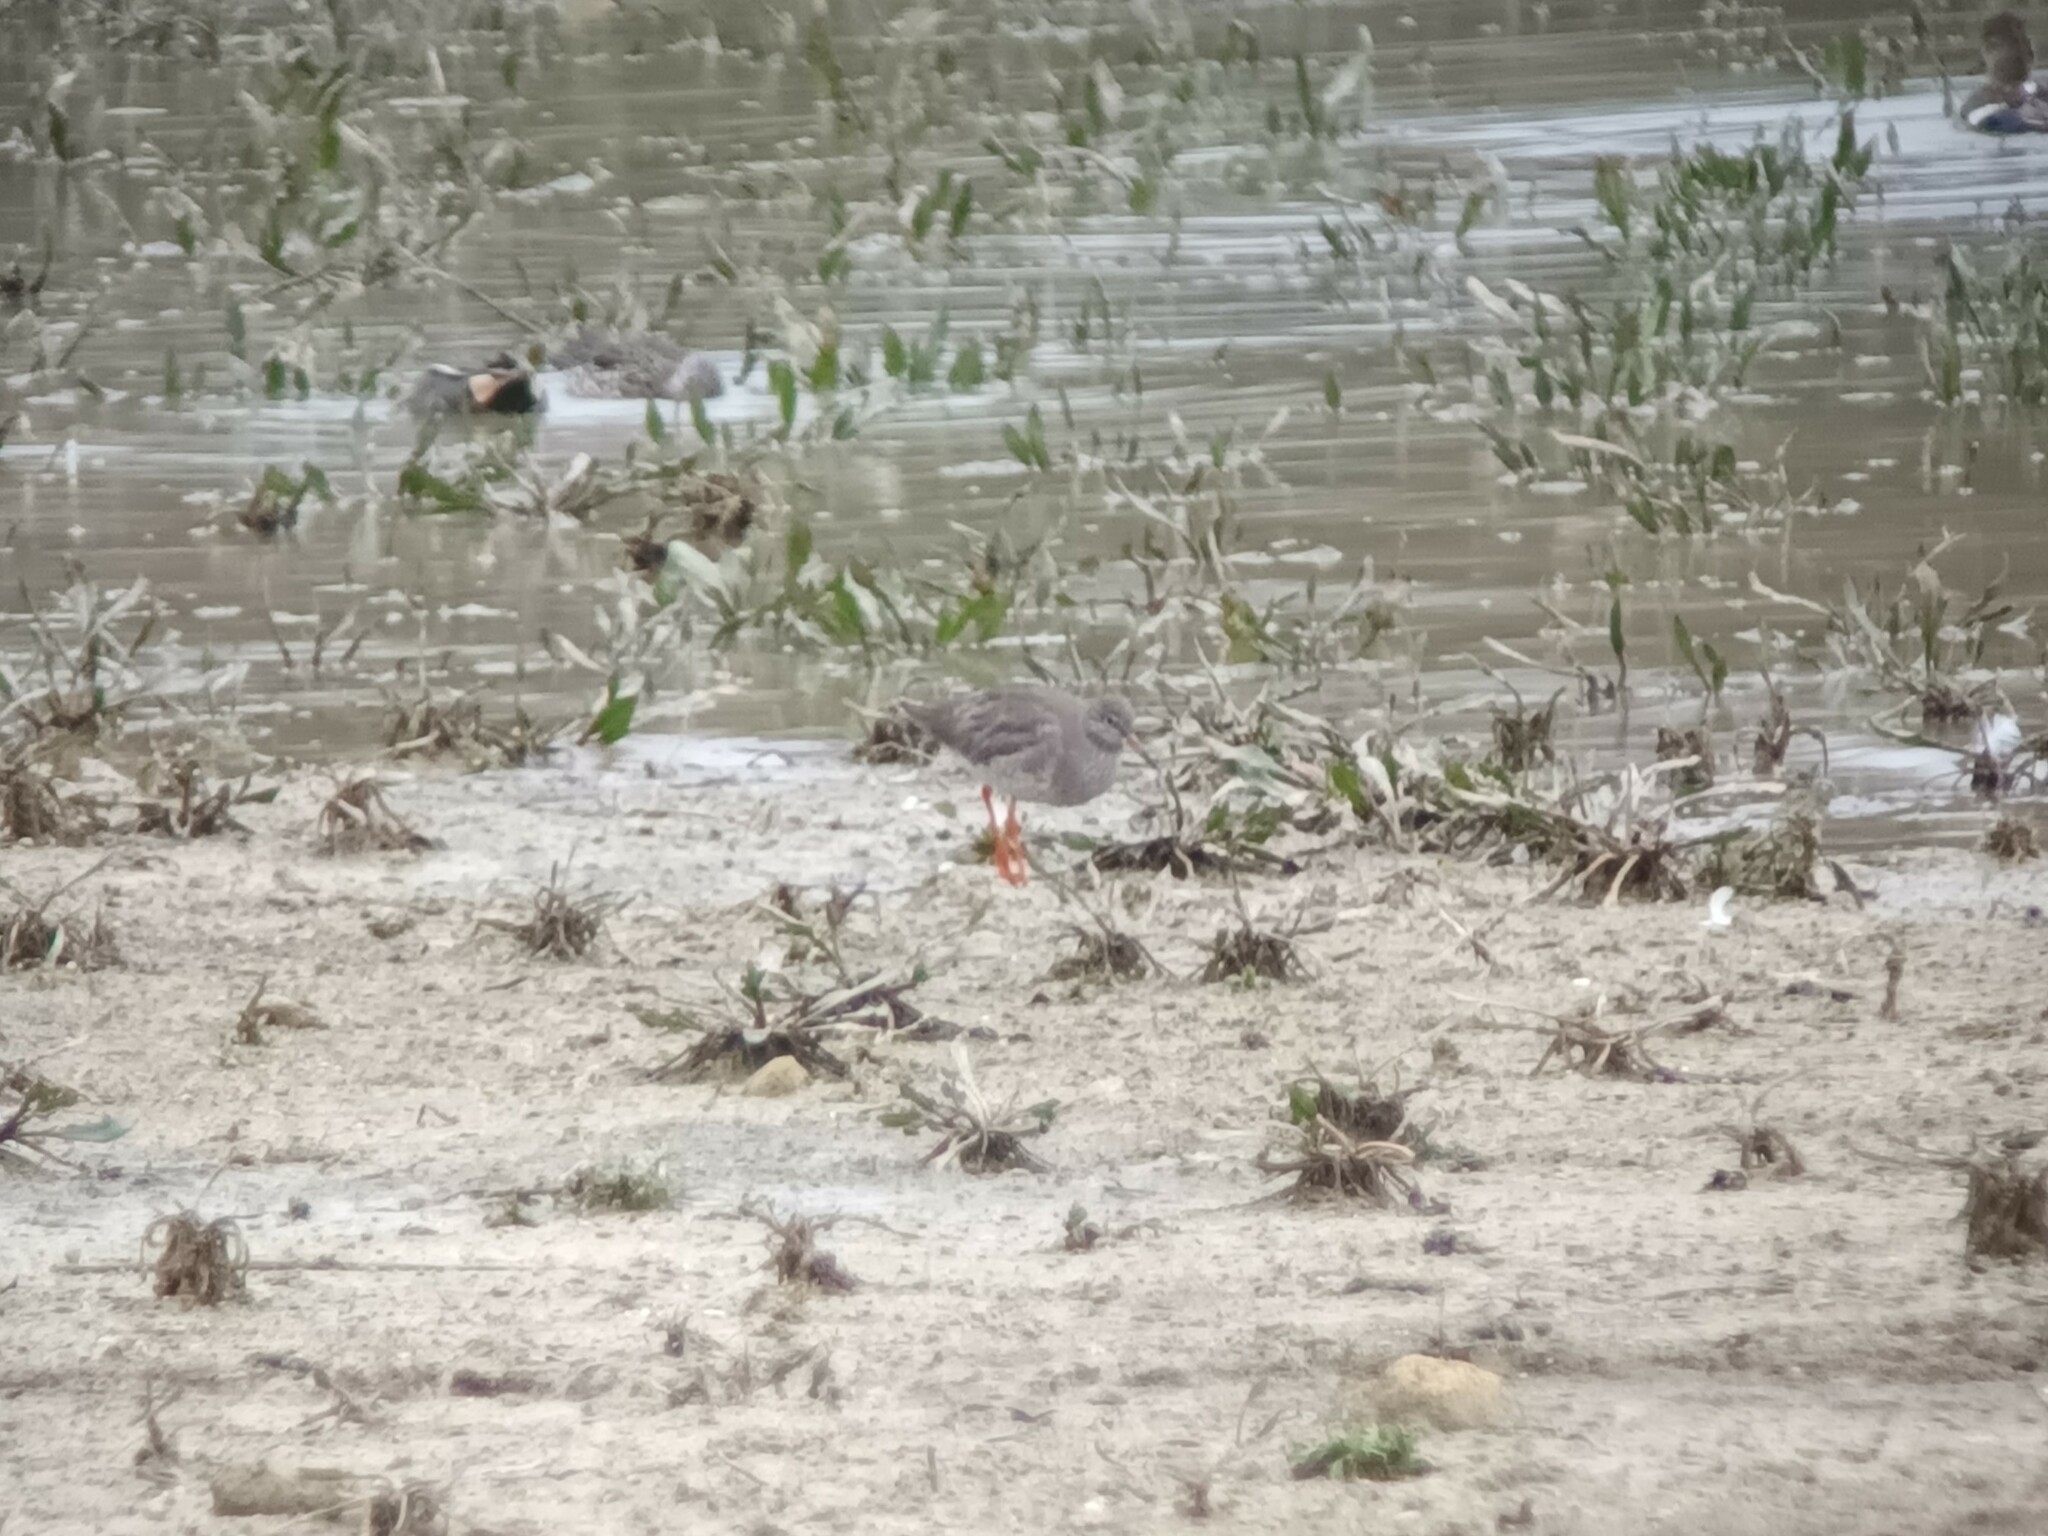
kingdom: Animalia
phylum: Chordata
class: Aves
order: Charadriiformes
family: Scolopacidae
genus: Tringa
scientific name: Tringa totanus
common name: Common redshank
